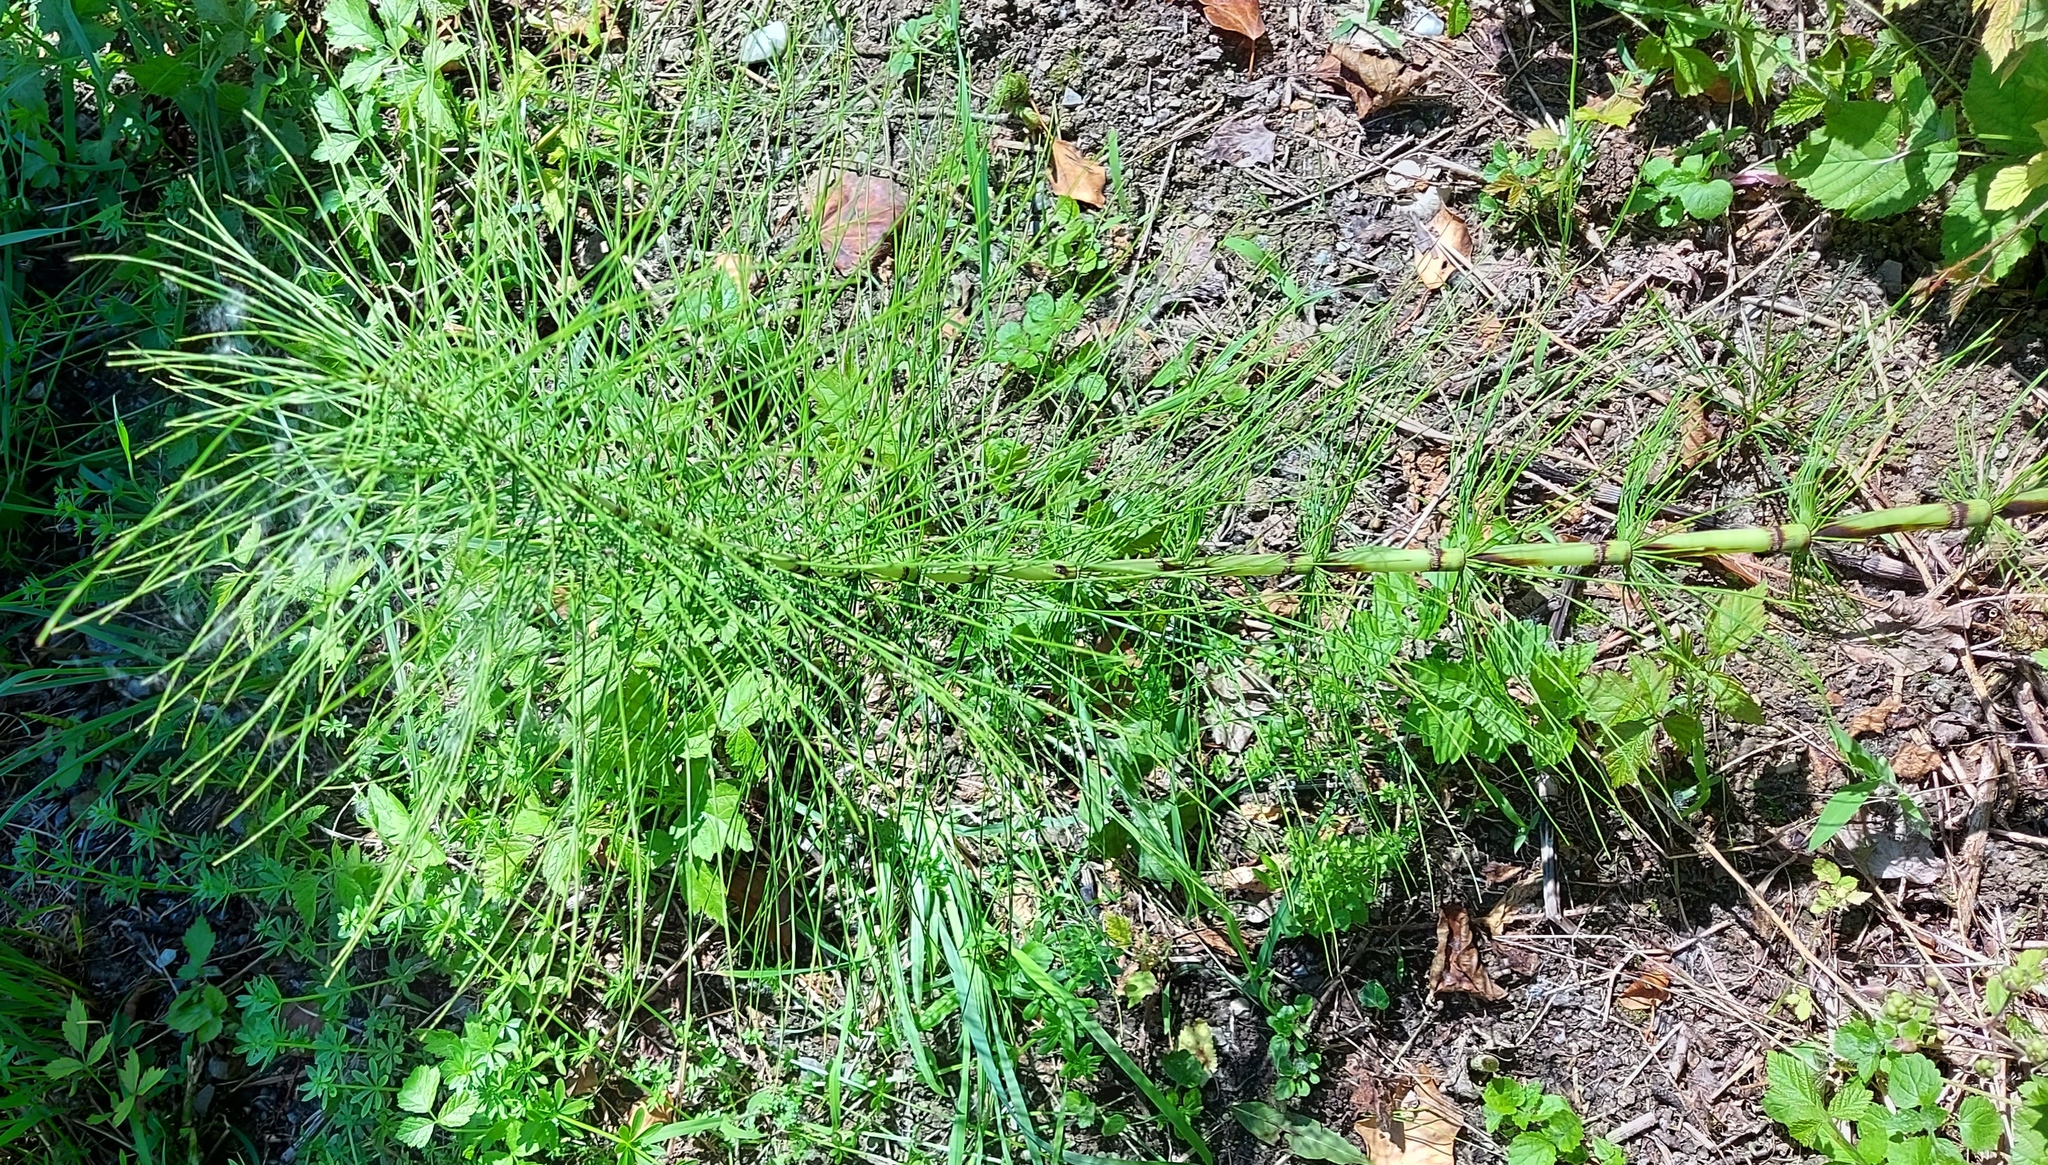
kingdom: Plantae
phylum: Tracheophyta
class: Polypodiopsida
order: Equisetales
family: Equisetaceae
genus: Equisetum
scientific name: Equisetum telmateia
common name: Great horsetail
